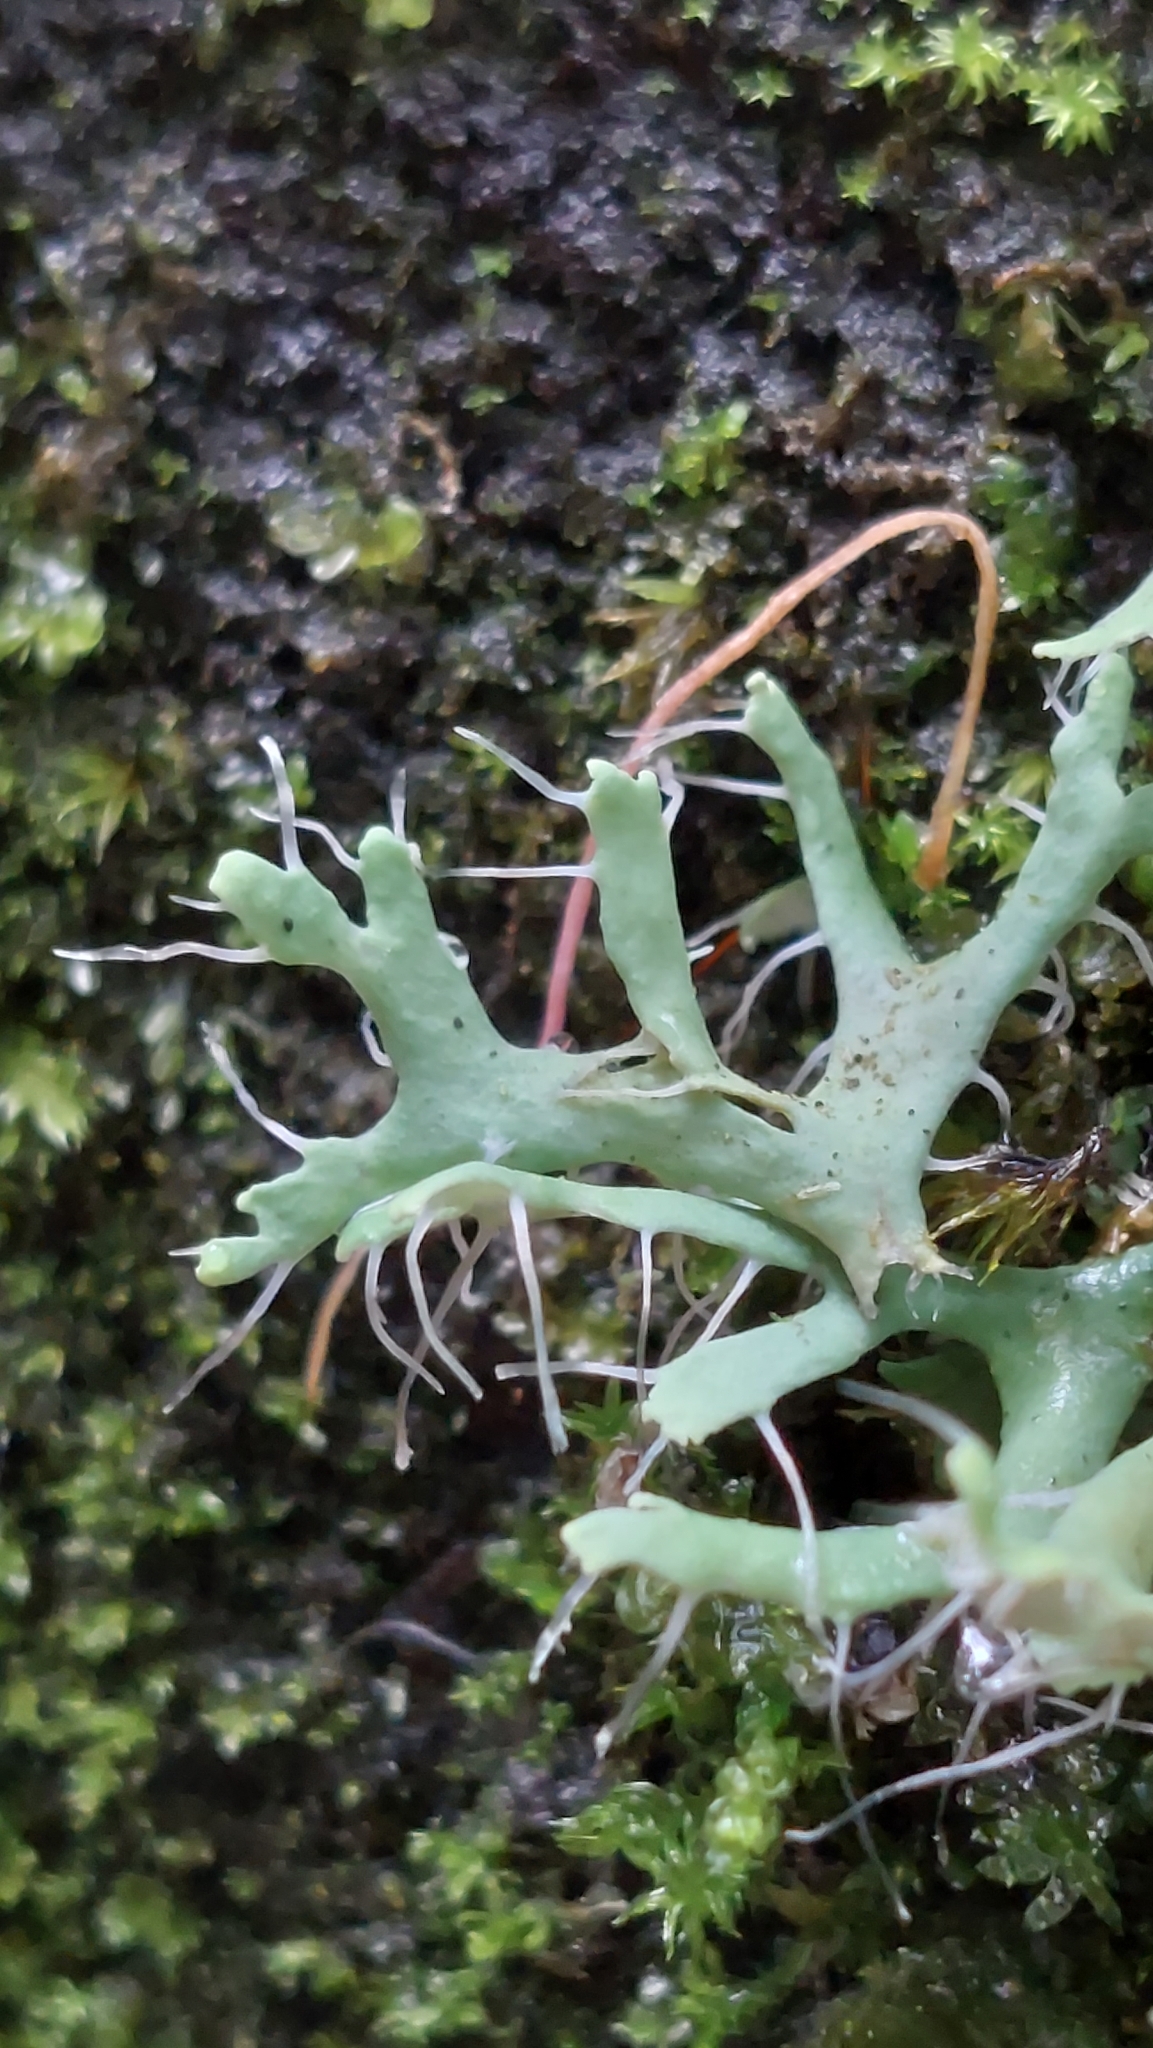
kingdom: Fungi
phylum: Ascomycota
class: Lecanoromycetes
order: Caliciales
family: Physciaceae
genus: Leucodermia
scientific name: Leucodermia leucomelos
